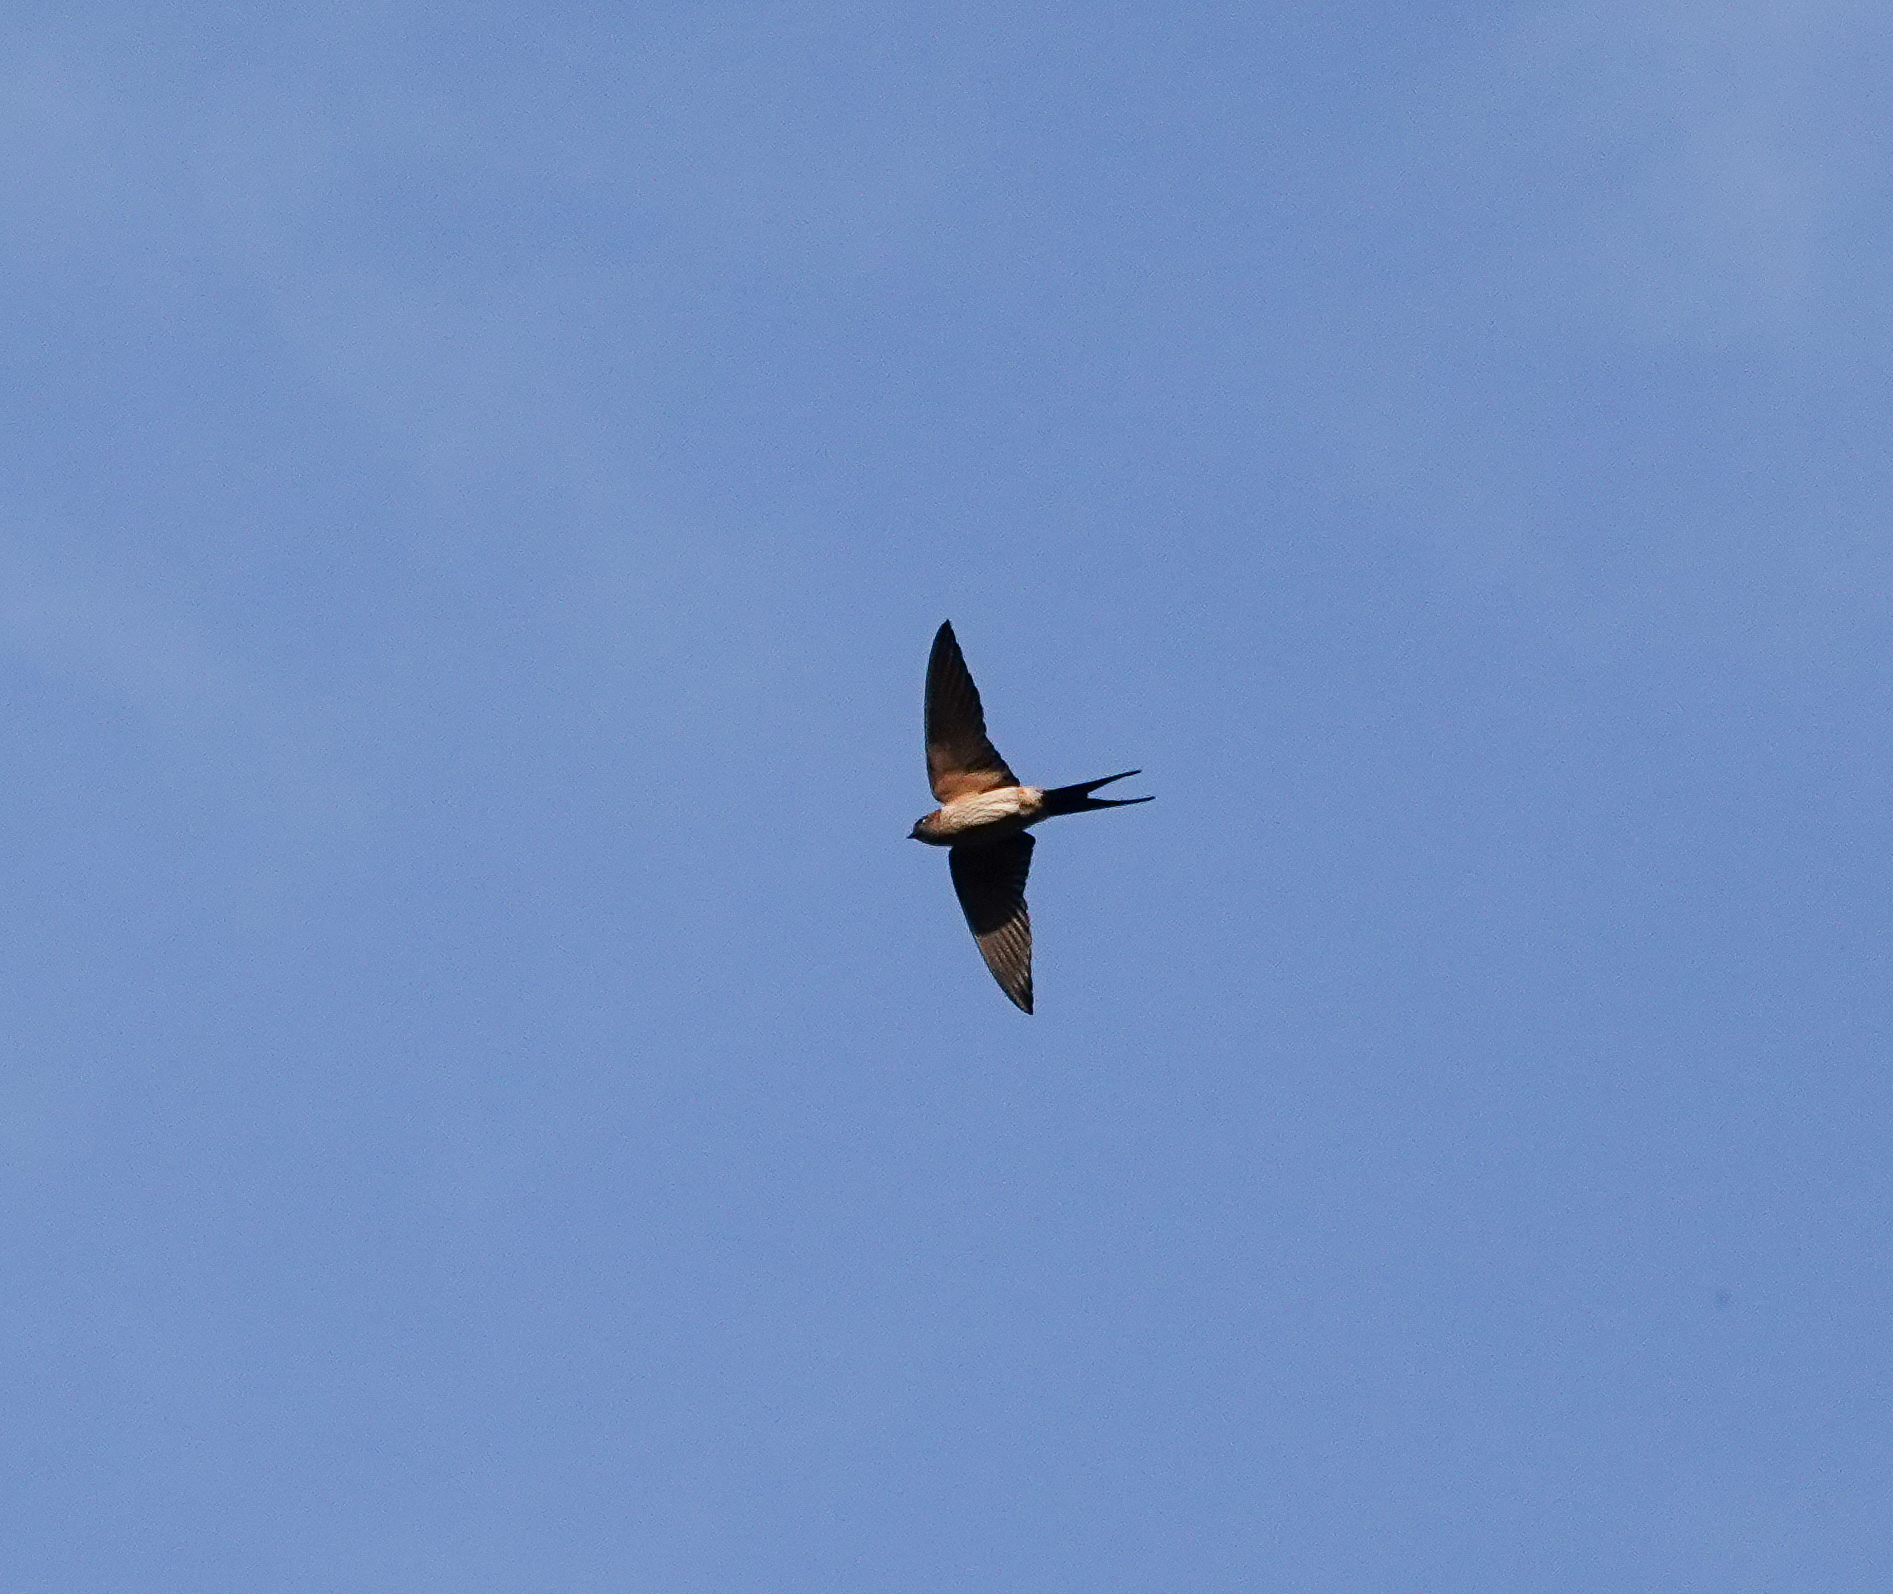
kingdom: Animalia
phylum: Chordata
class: Aves
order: Passeriformes
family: Hirundinidae
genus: Cecropis
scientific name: Cecropis daurica
